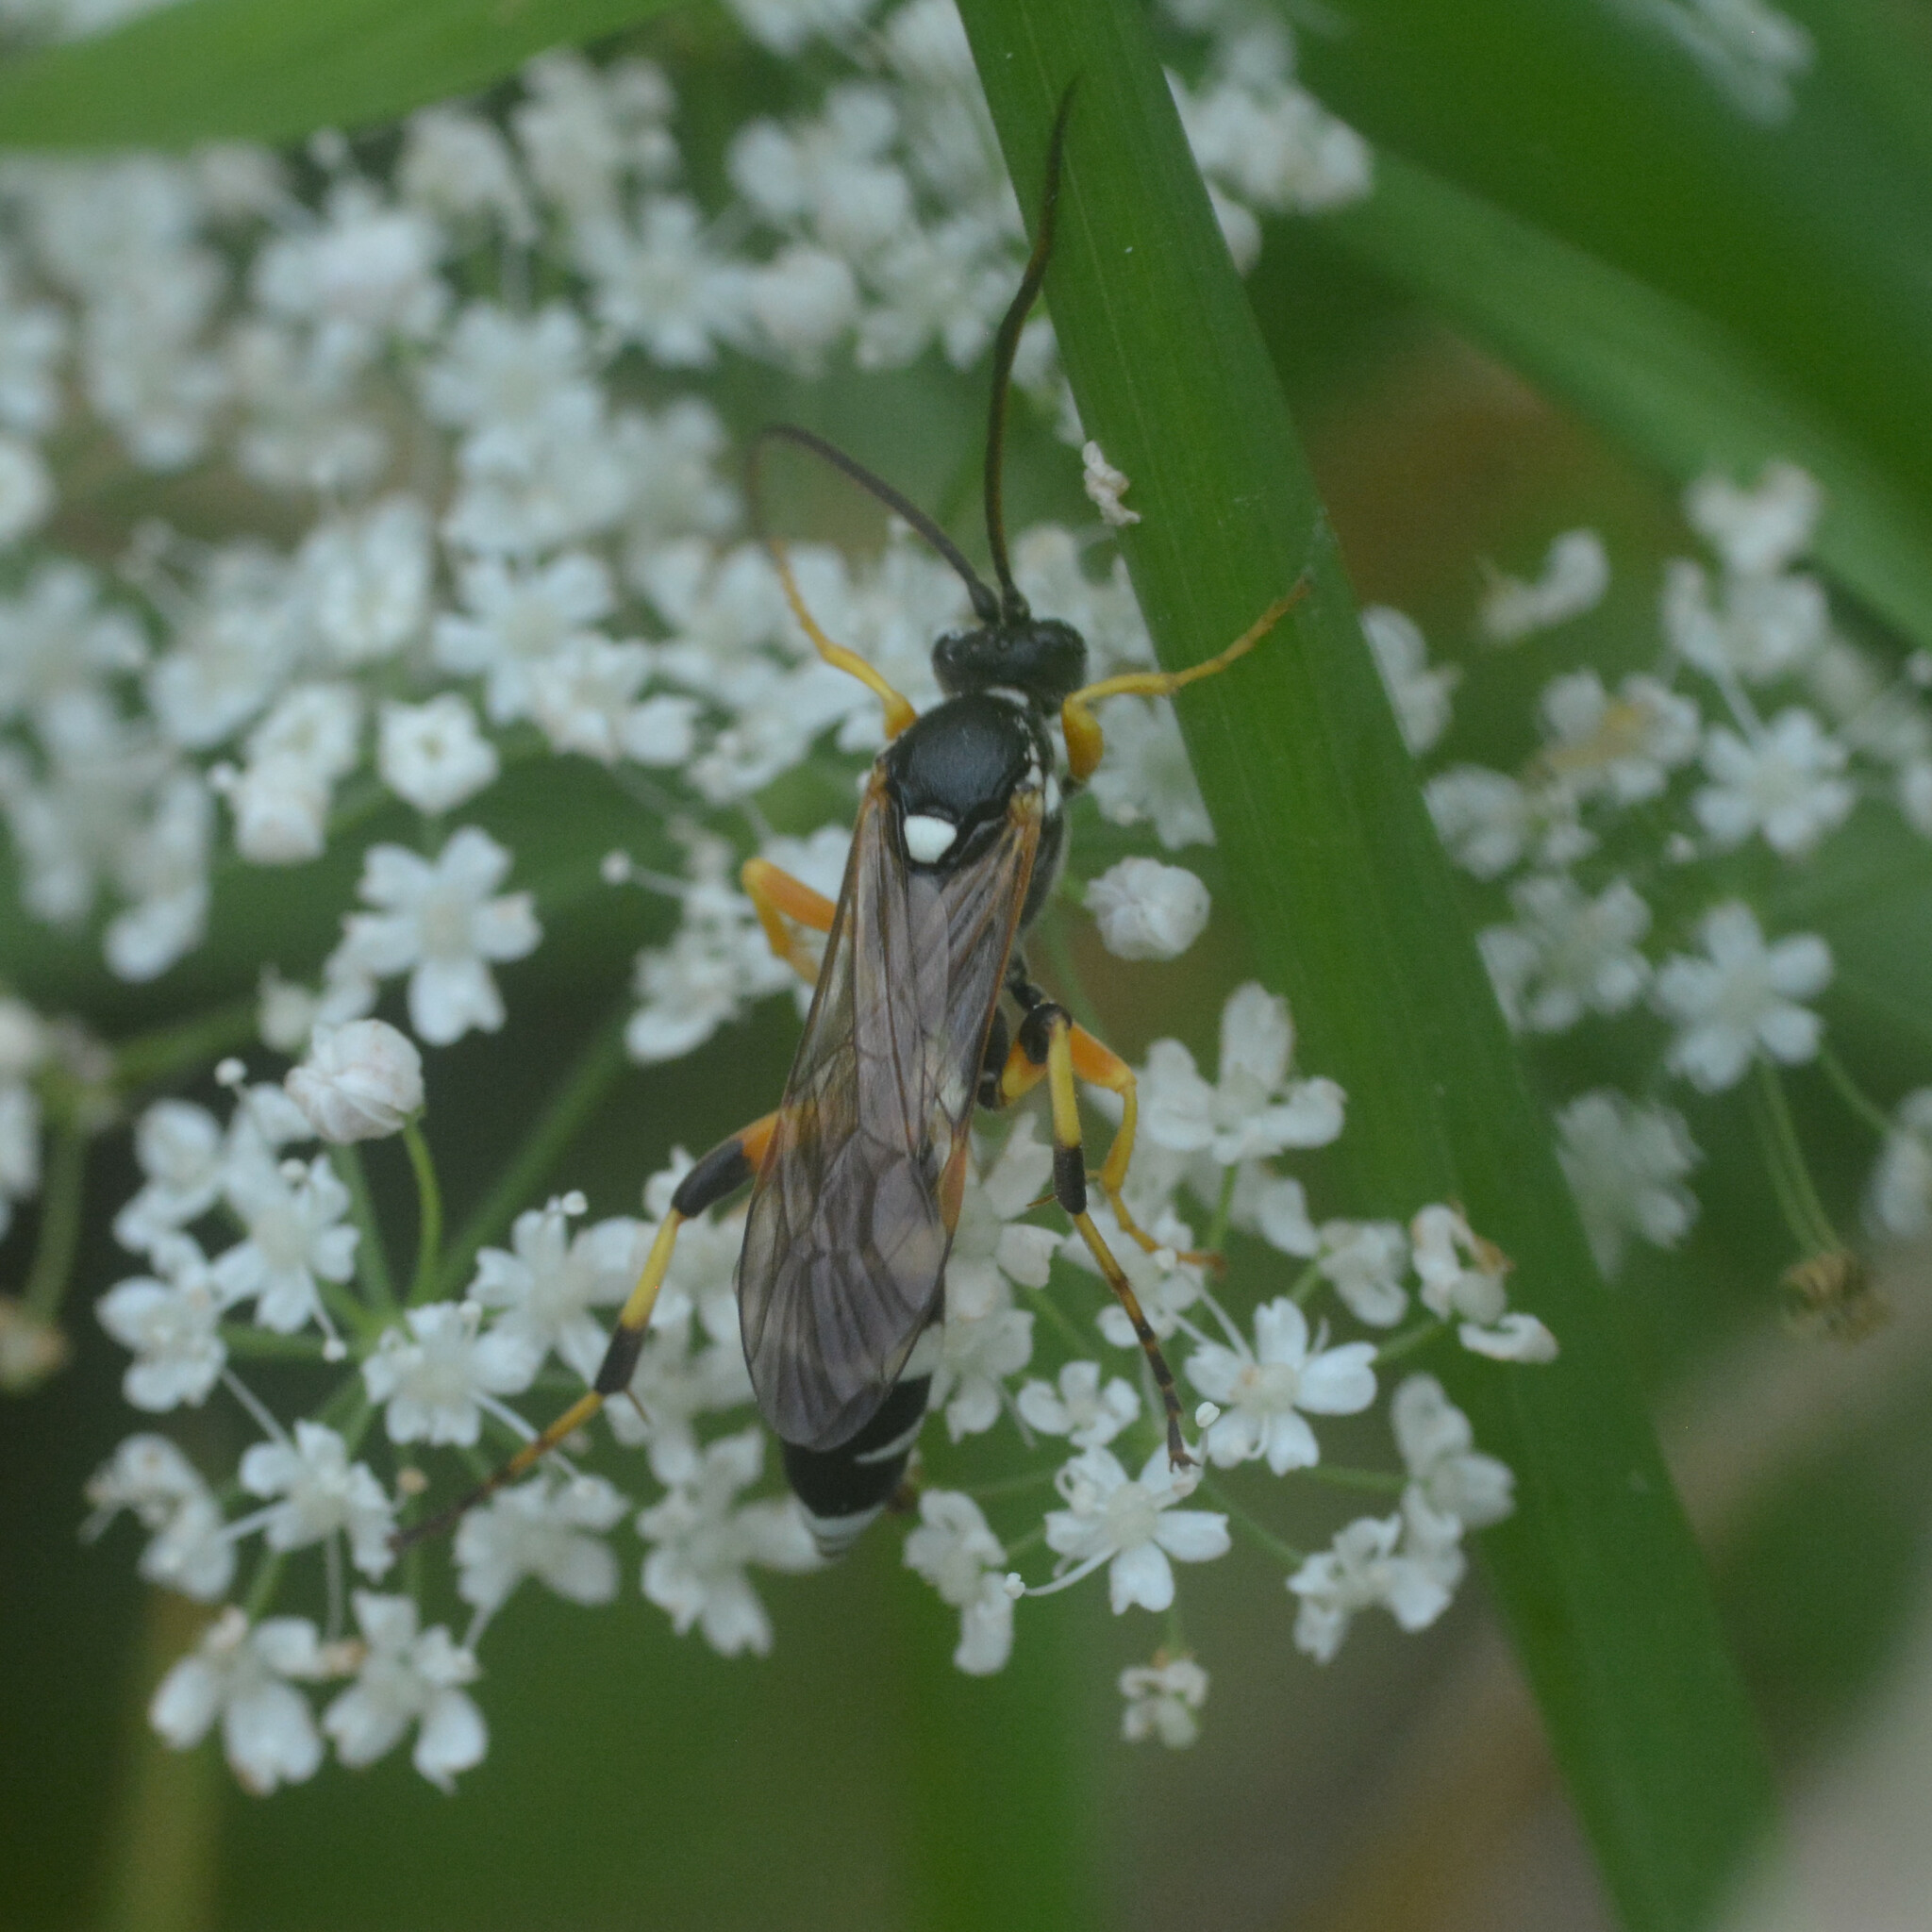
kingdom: Animalia
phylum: Arthropoda
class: Insecta
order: Hymenoptera
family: Ichneumonidae
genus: Ichneumon
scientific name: Ichneumon sarcitorius
